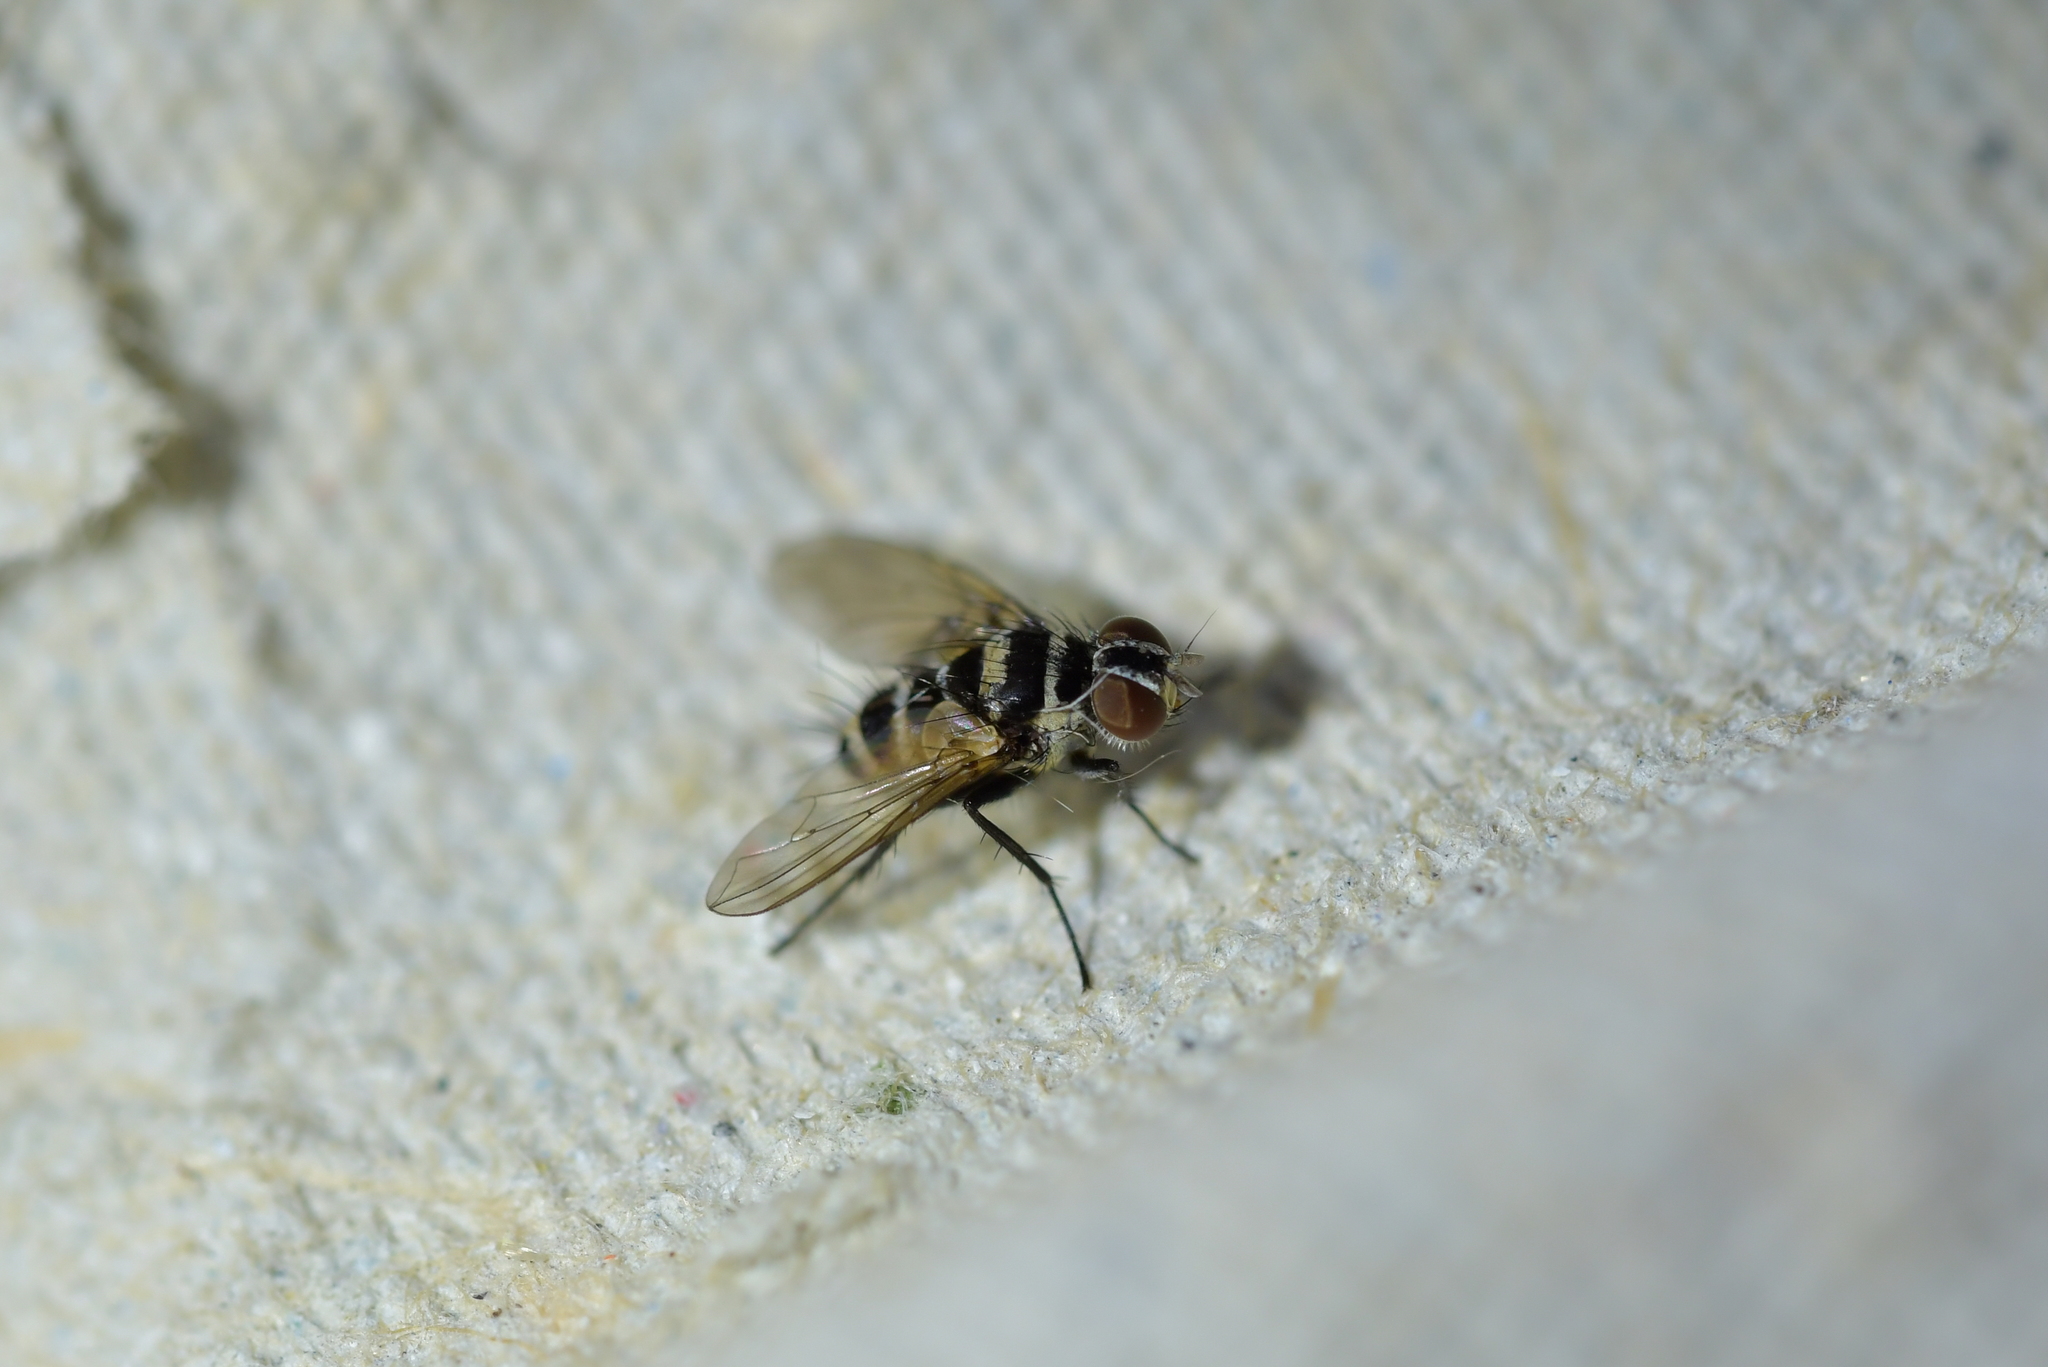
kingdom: Animalia
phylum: Arthropoda
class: Insecta
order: Diptera
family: Tachinidae
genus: Trigonospila
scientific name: Trigonospila brevifacies
